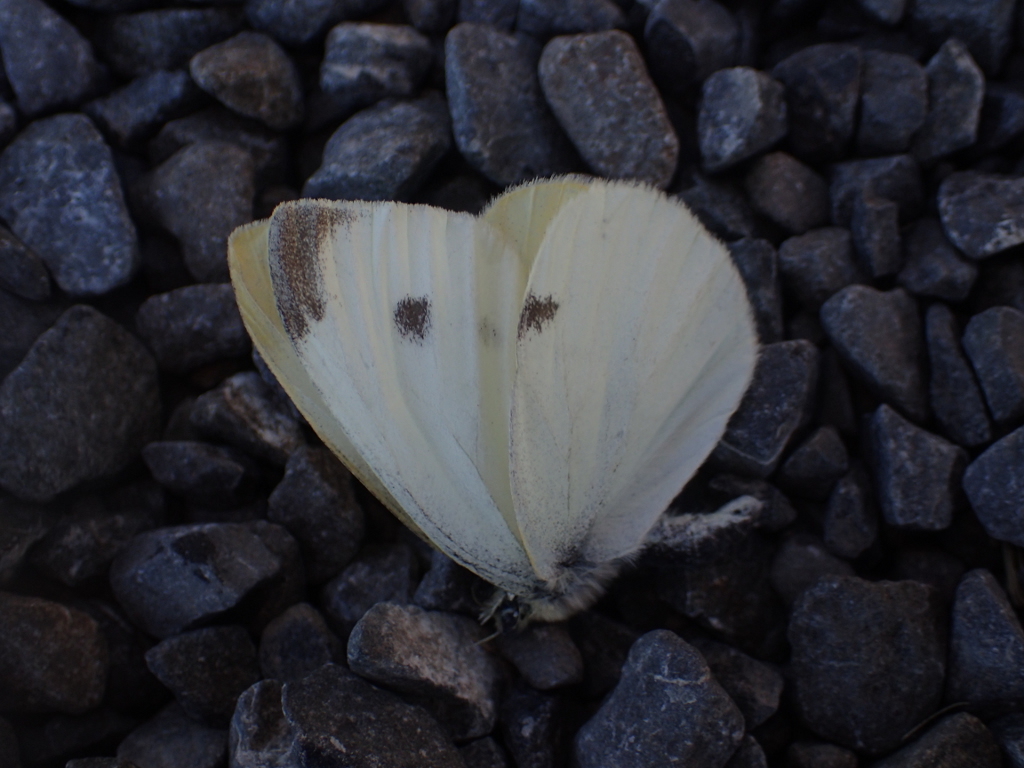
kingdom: Animalia
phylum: Arthropoda
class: Insecta
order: Lepidoptera
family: Pieridae
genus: Pieris
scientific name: Pieris rapae
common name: Small white
